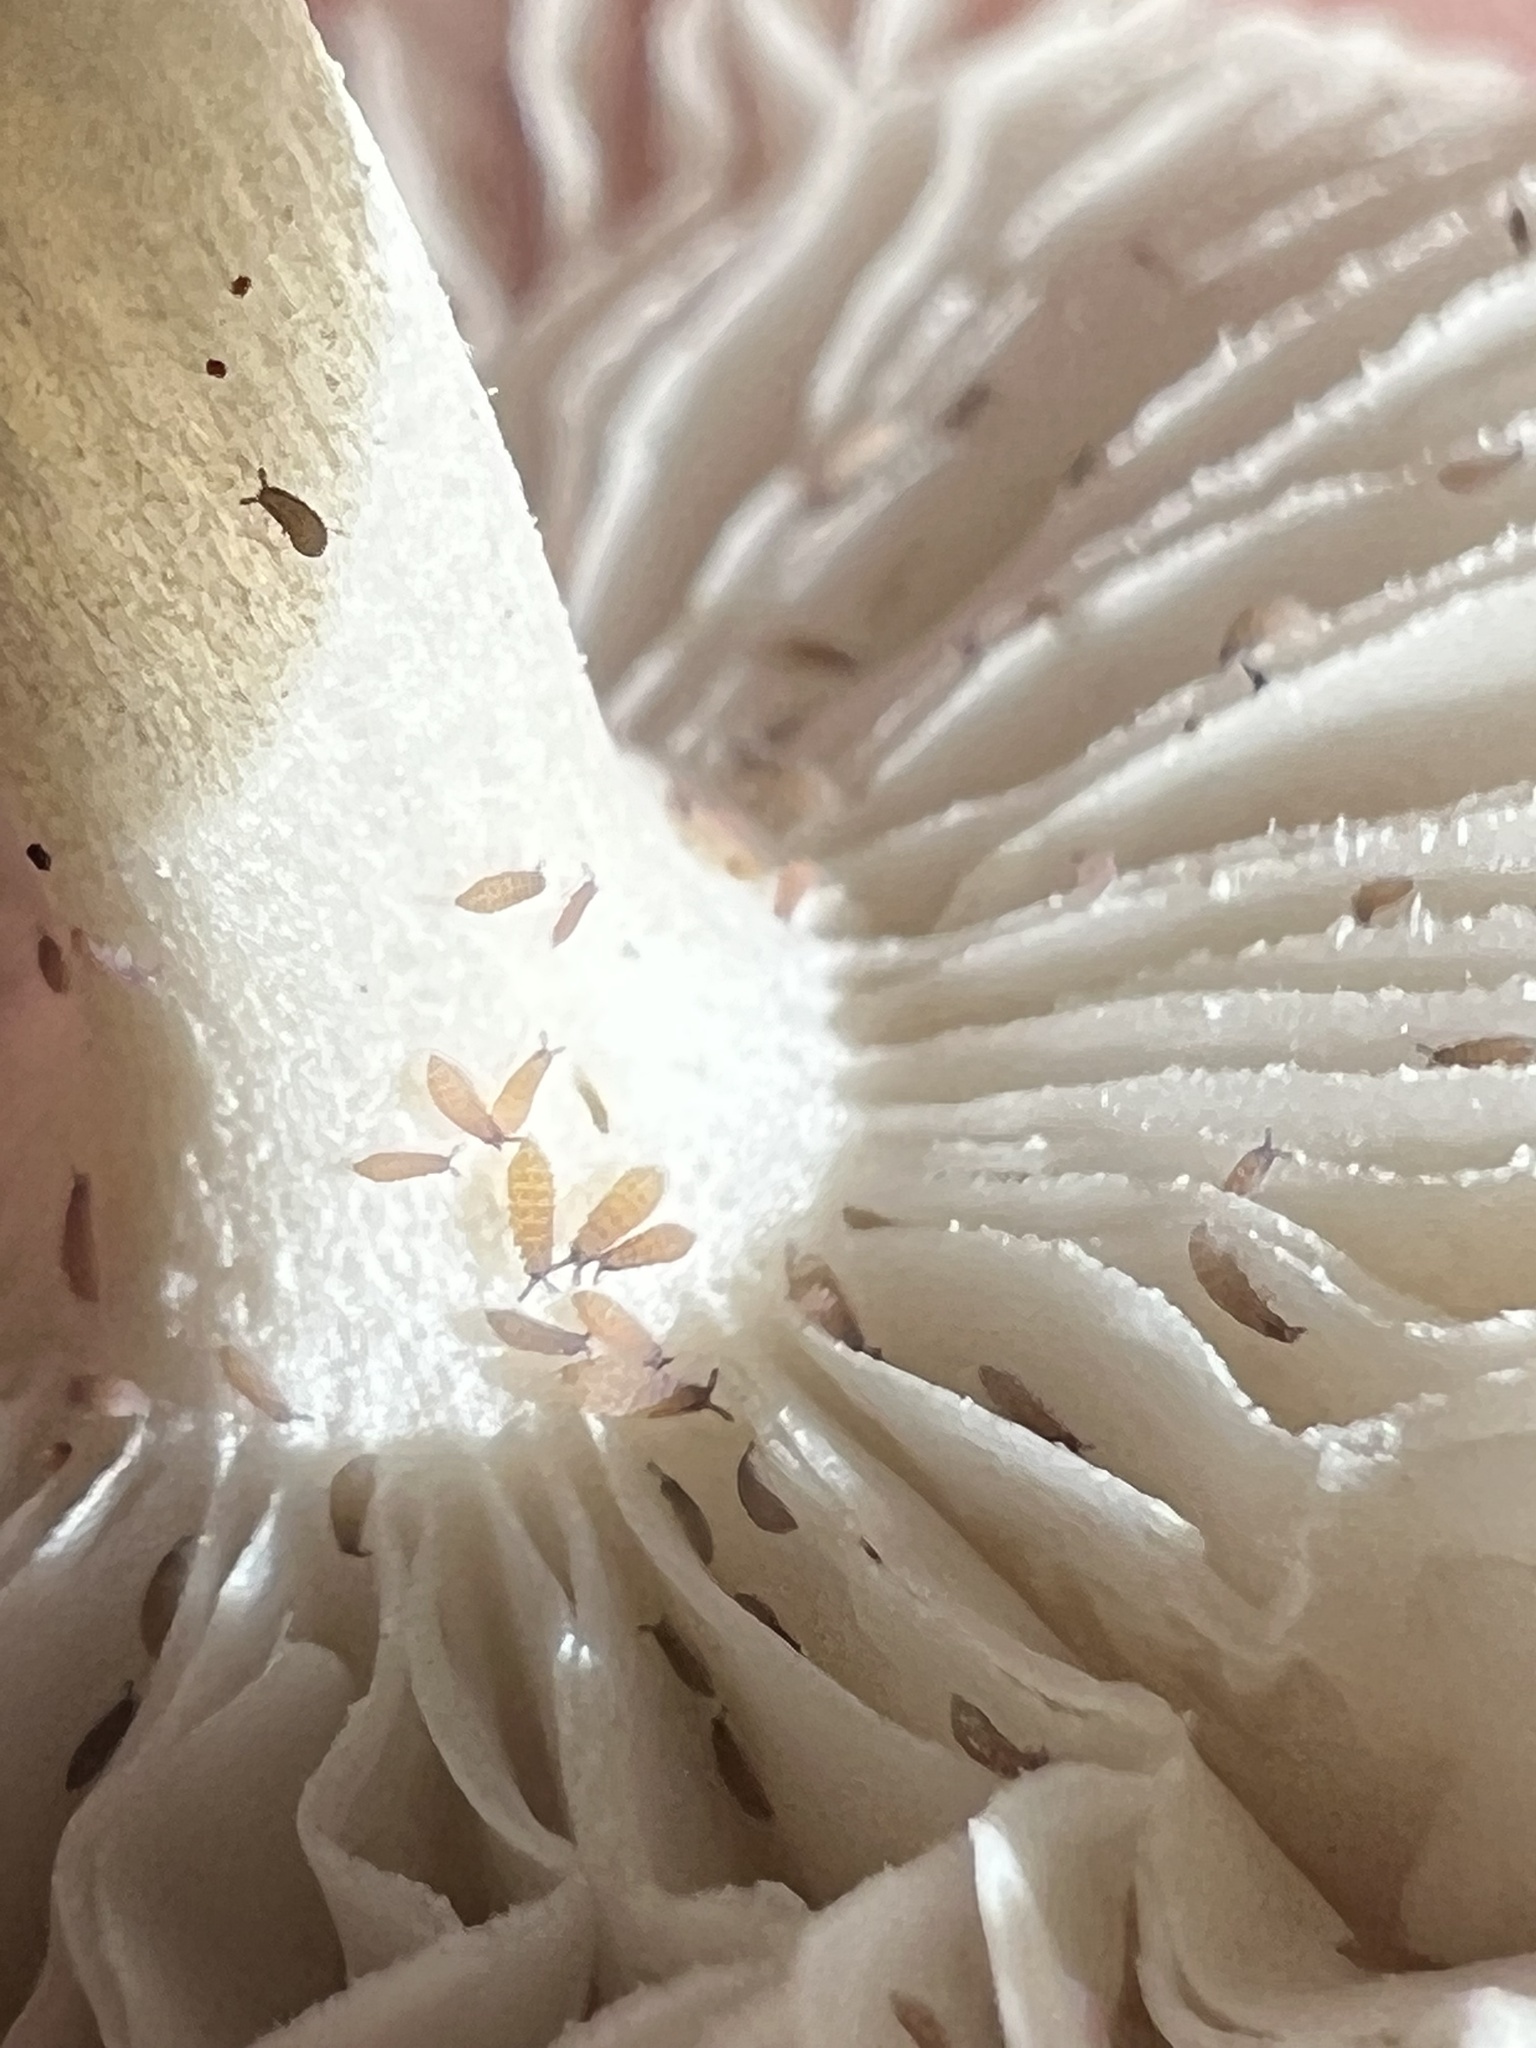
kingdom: Fungi
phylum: Basidiomycota
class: Agaricomycetes
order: Agaricales
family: Amanitaceae
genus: Amanita
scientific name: Amanita farinosa
